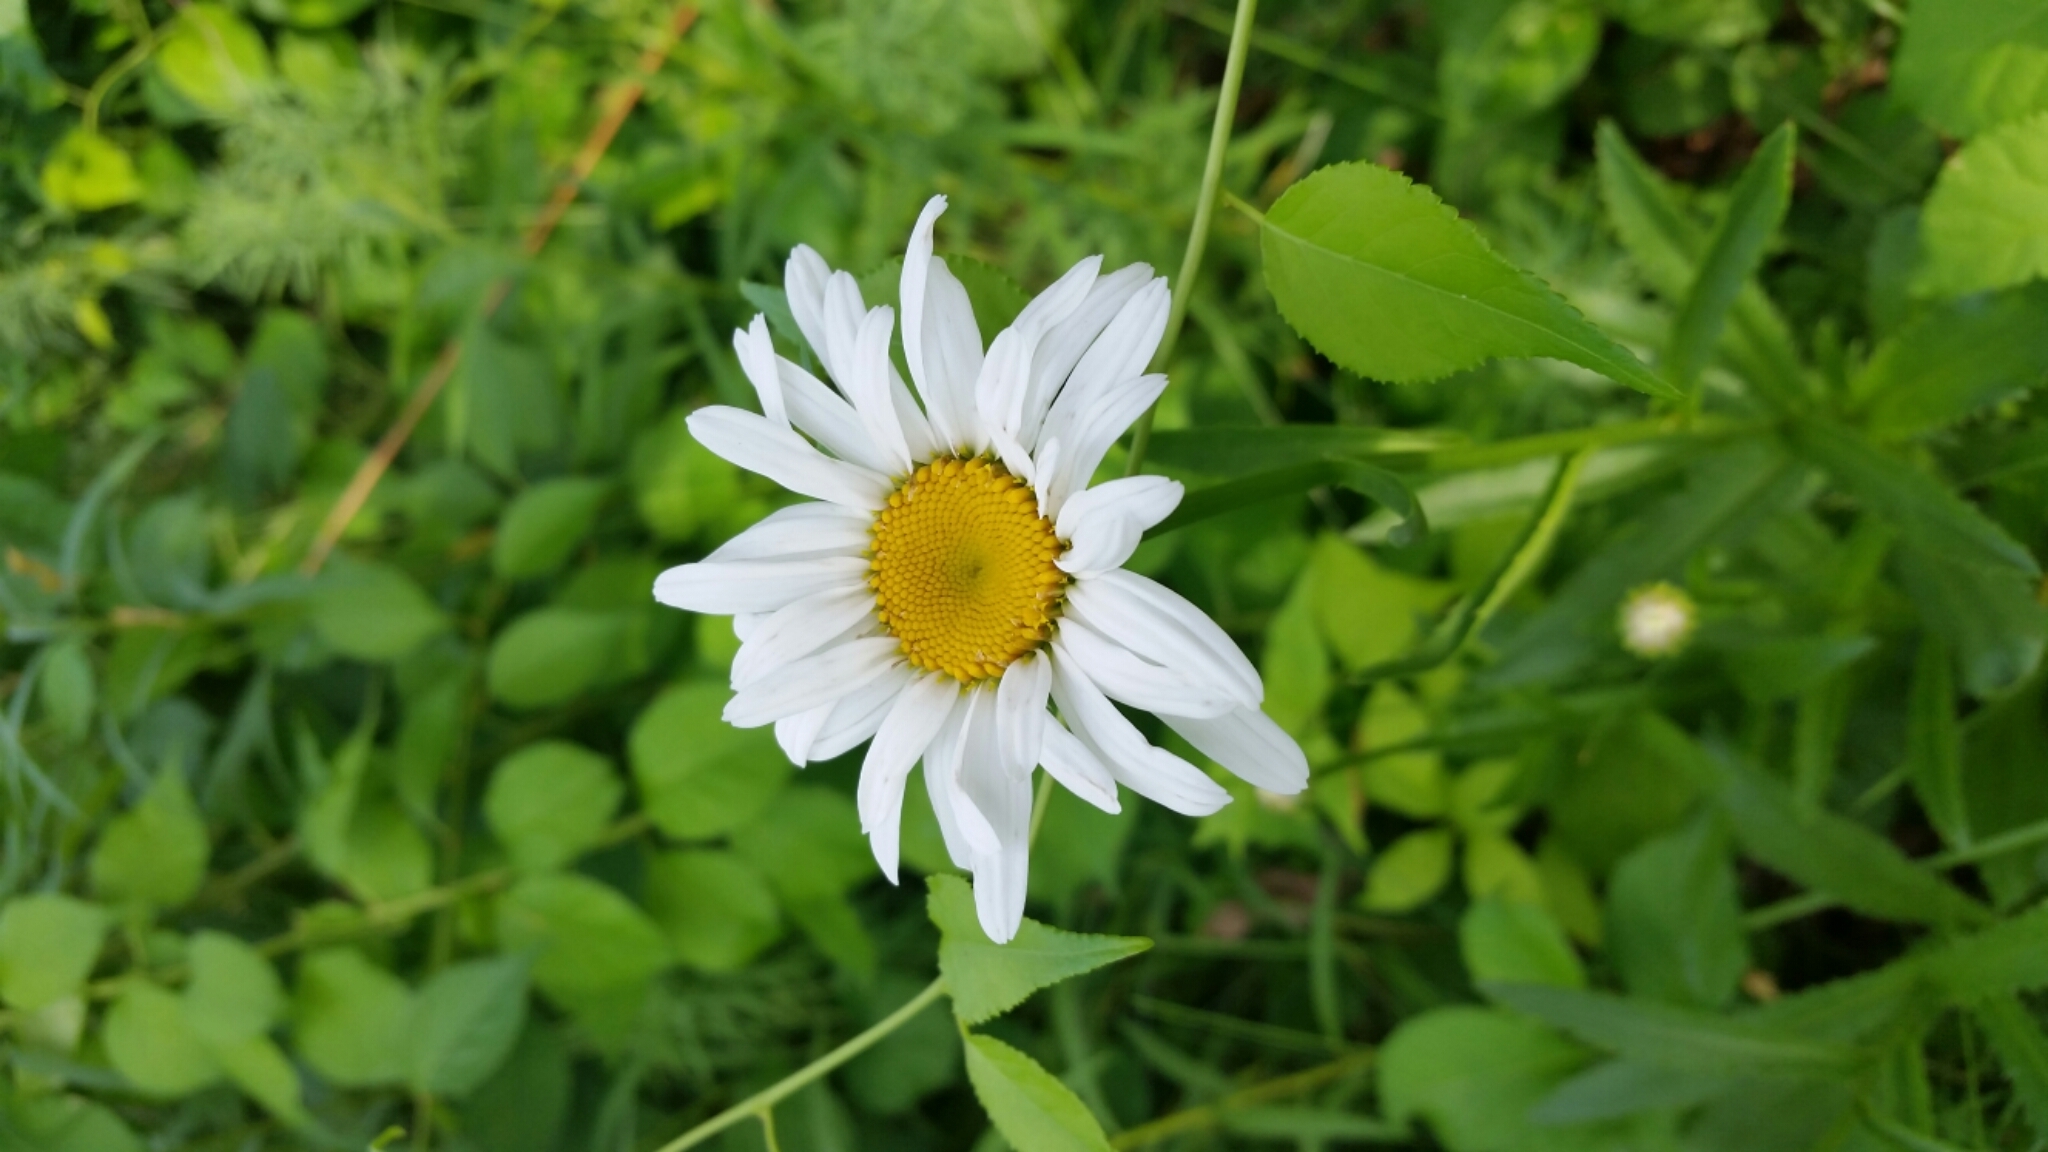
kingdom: Plantae
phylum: Tracheophyta
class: Magnoliopsida
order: Asterales
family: Asteraceae
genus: Leucanthemum
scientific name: Leucanthemum vulgare
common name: Oxeye daisy
